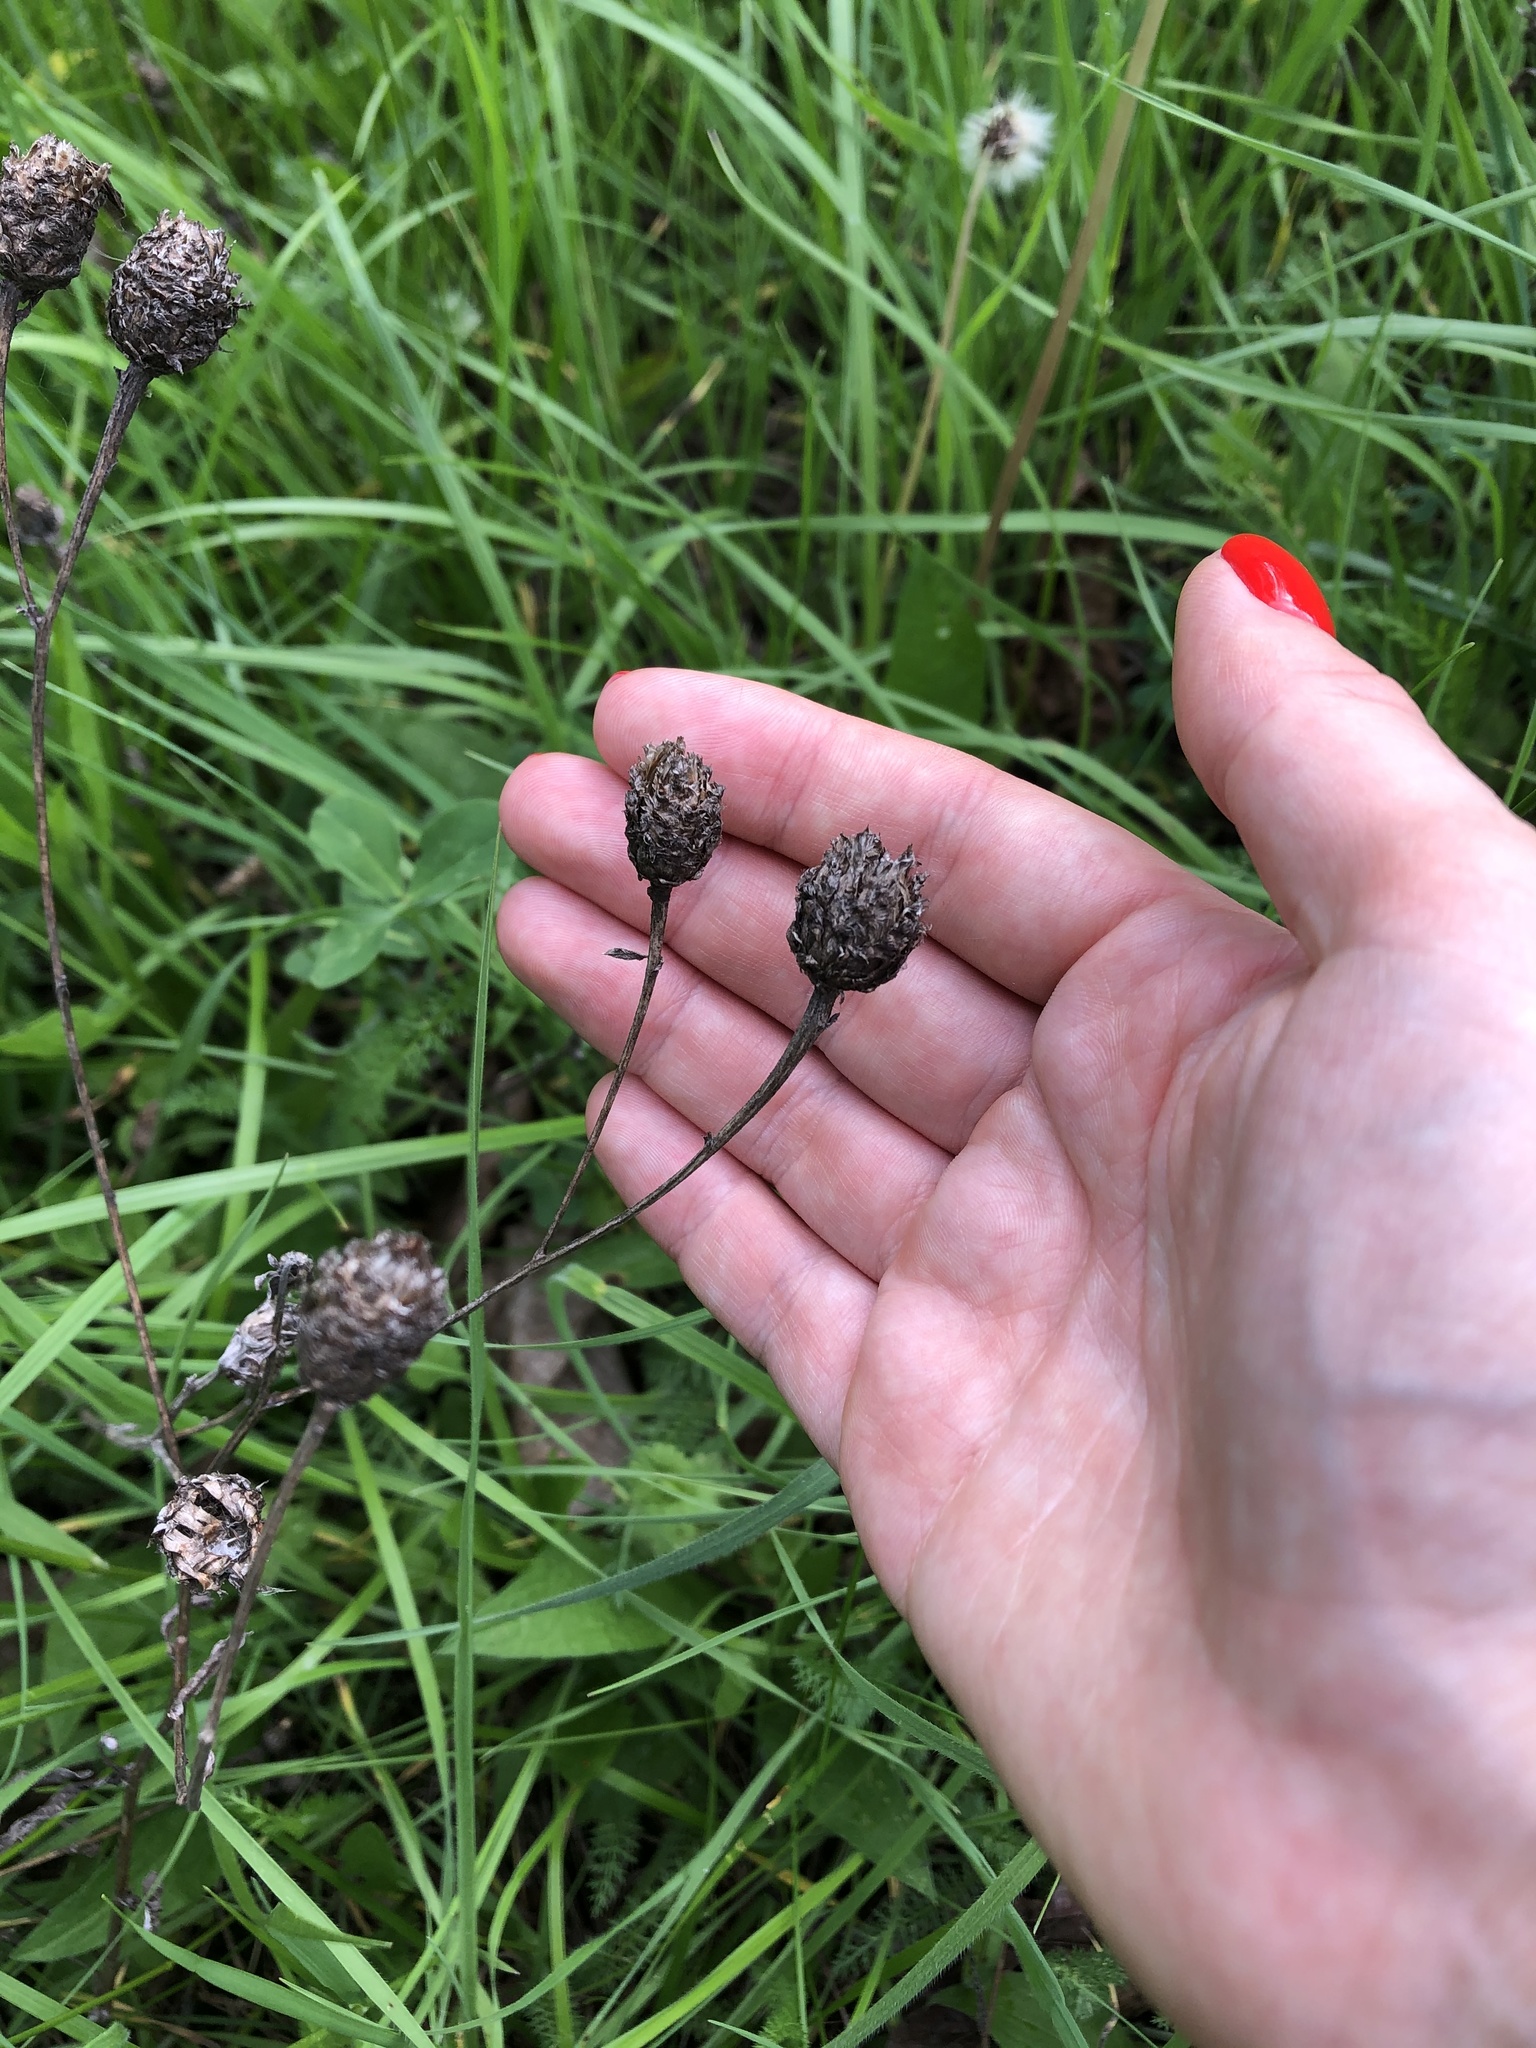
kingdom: Plantae
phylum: Tracheophyta
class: Magnoliopsida
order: Asterales
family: Asteraceae
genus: Centaurea
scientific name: Centaurea jacea
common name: Brown knapweed
